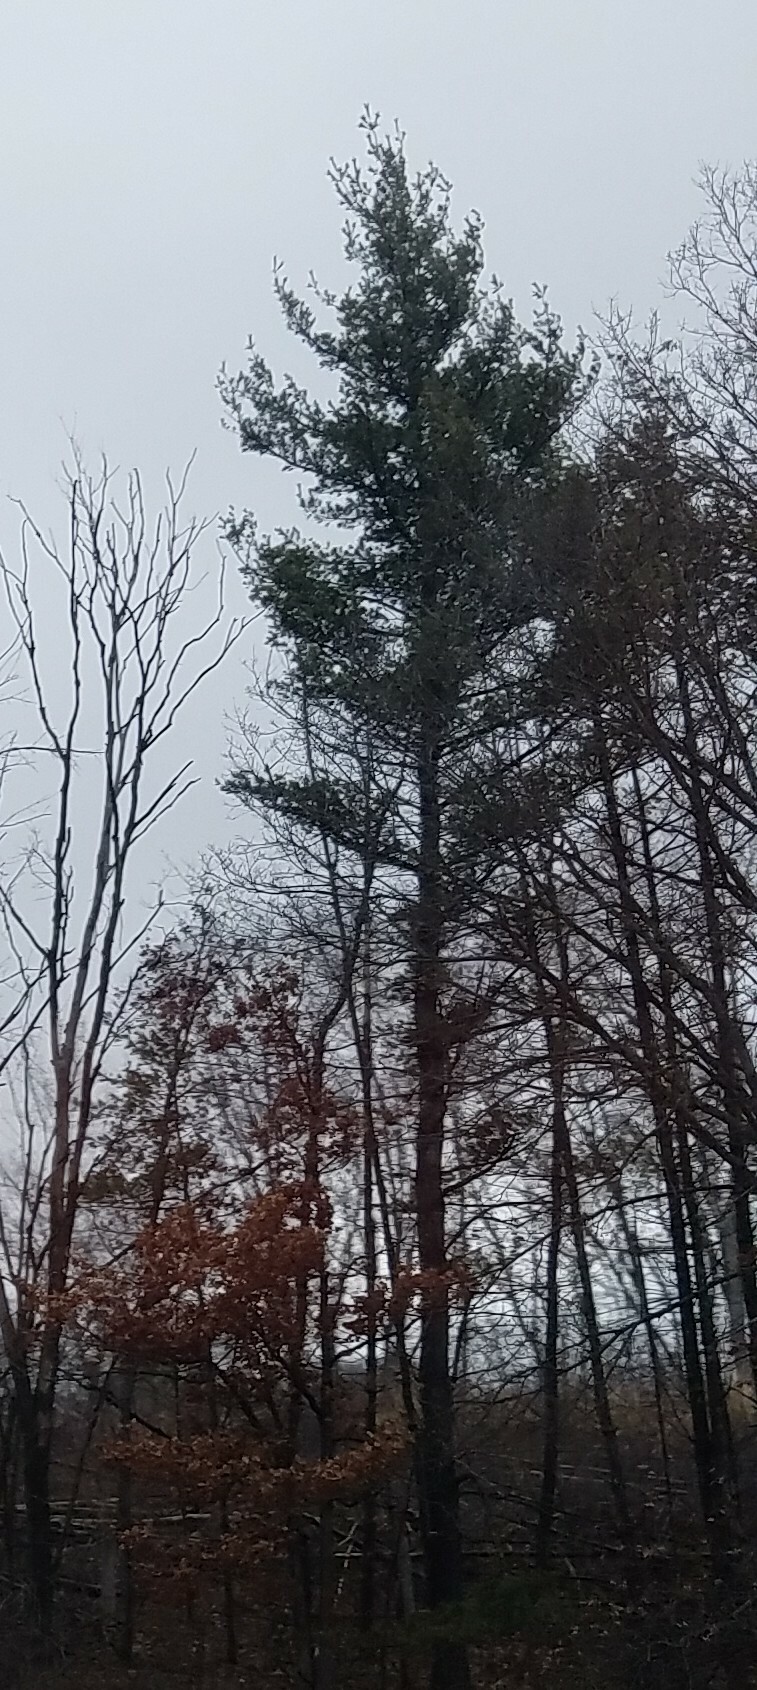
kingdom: Plantae
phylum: Tracheophyta
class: Pinopsida
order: Pinales
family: Pinaceae
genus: Pinus
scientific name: Pinus strobus
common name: Weymouth pine
